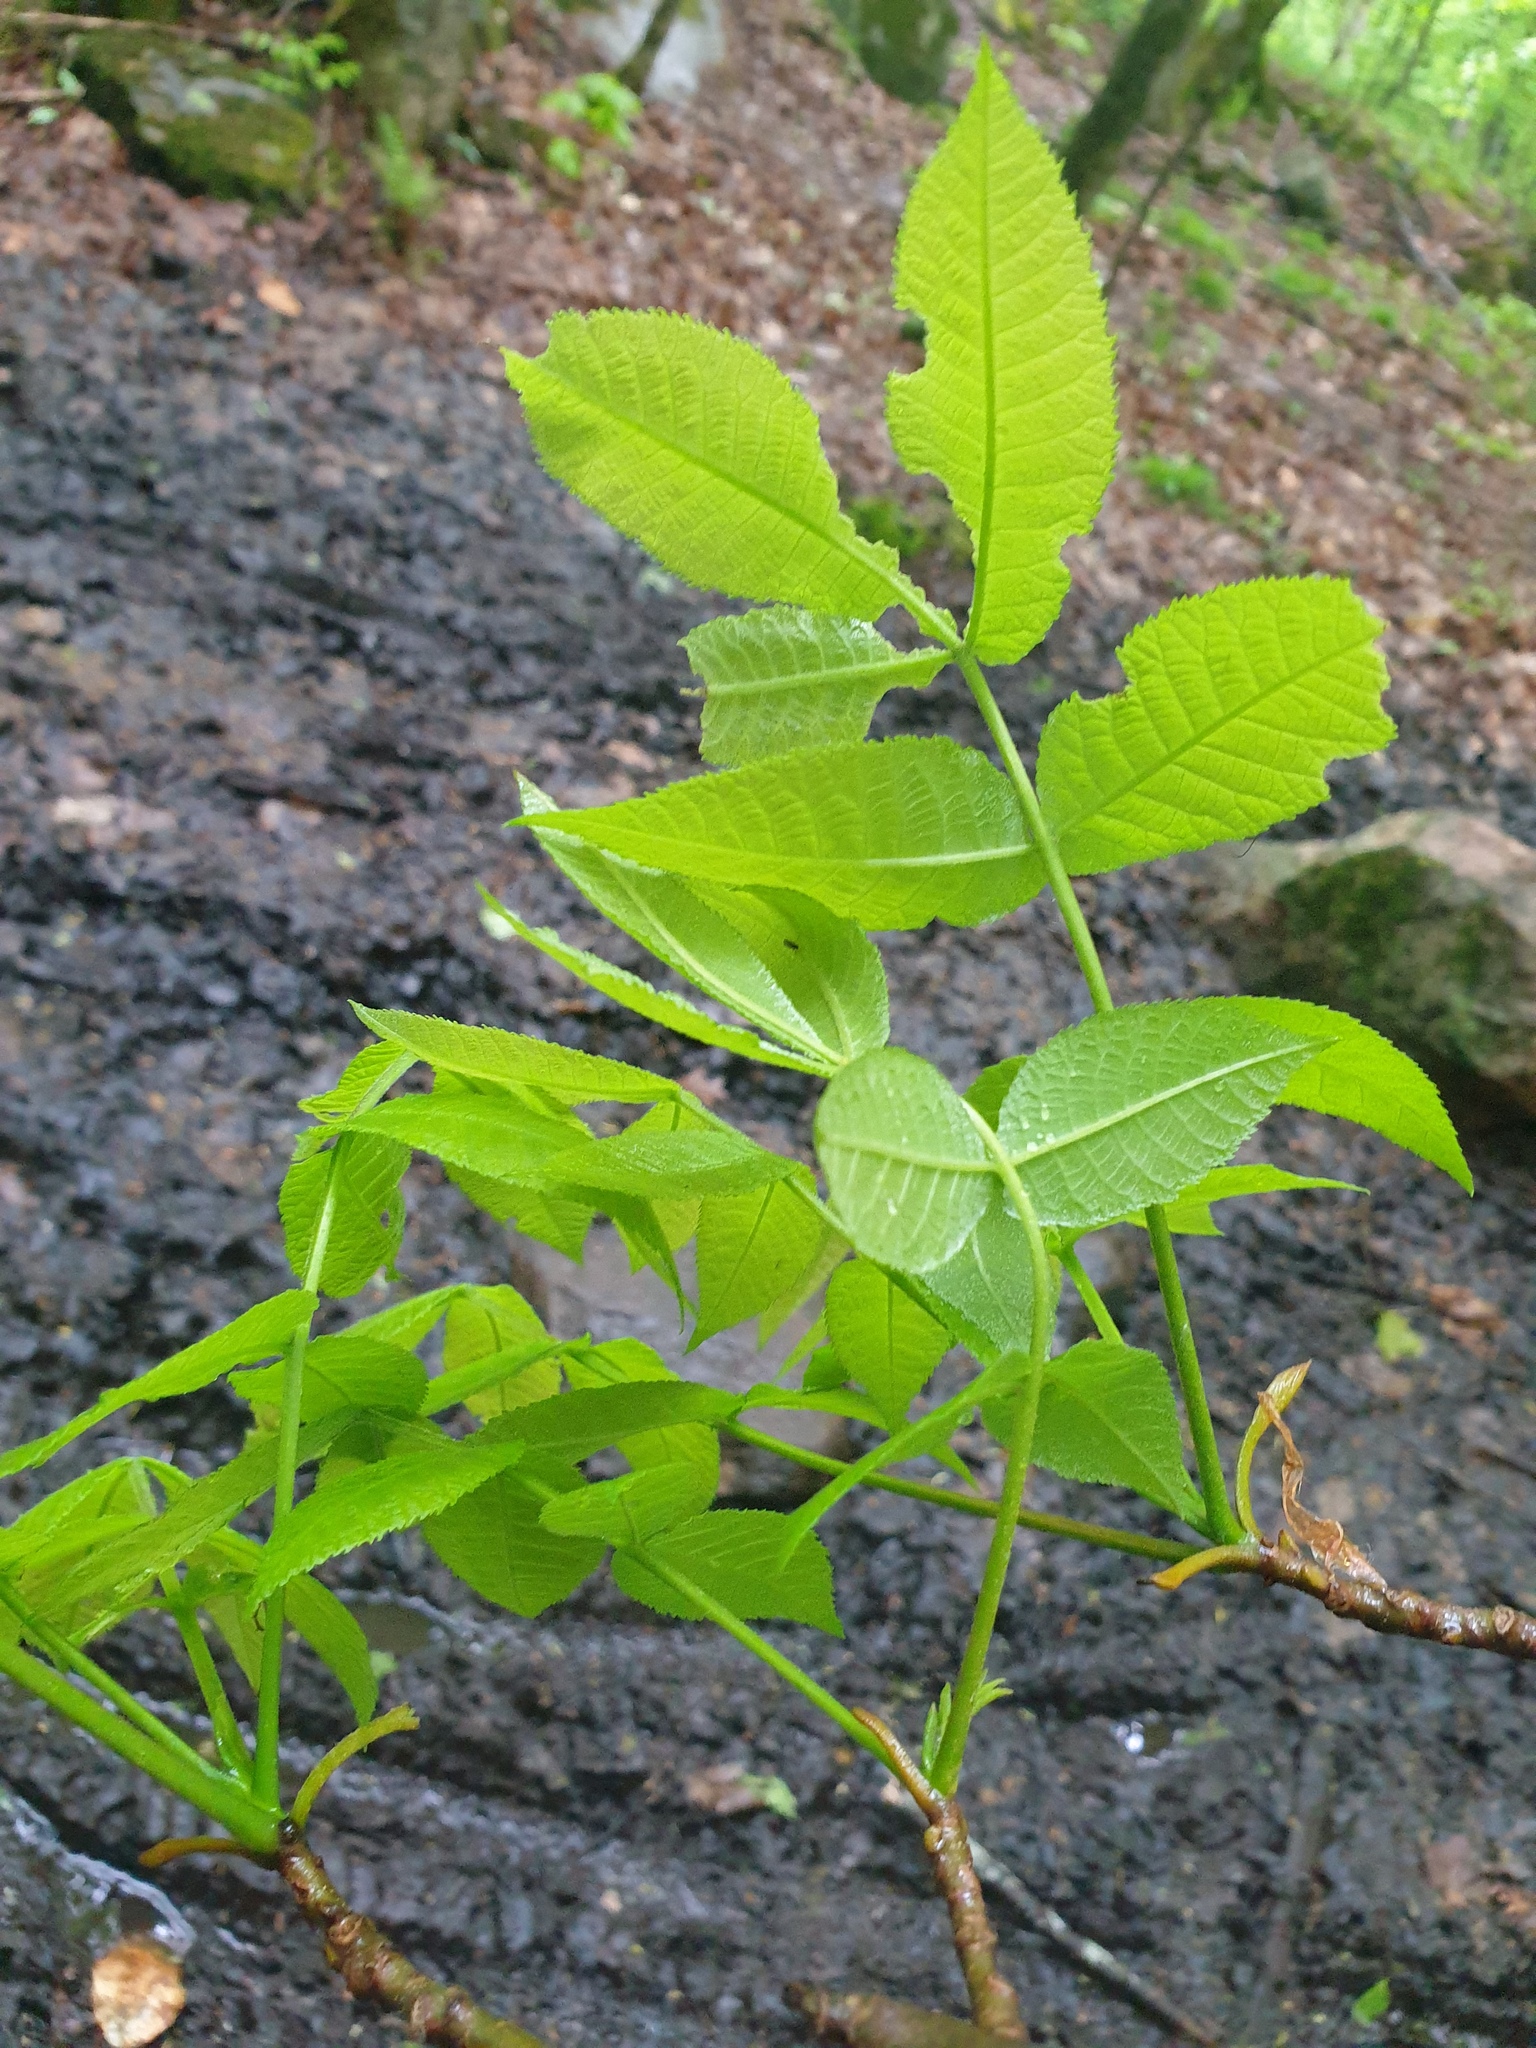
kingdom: Plantae
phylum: Tracheophyta
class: Magnoliopsida
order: Fagales
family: Juglandaceae
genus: Carya
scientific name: Carya cordiformis
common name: Bitternut hickory
